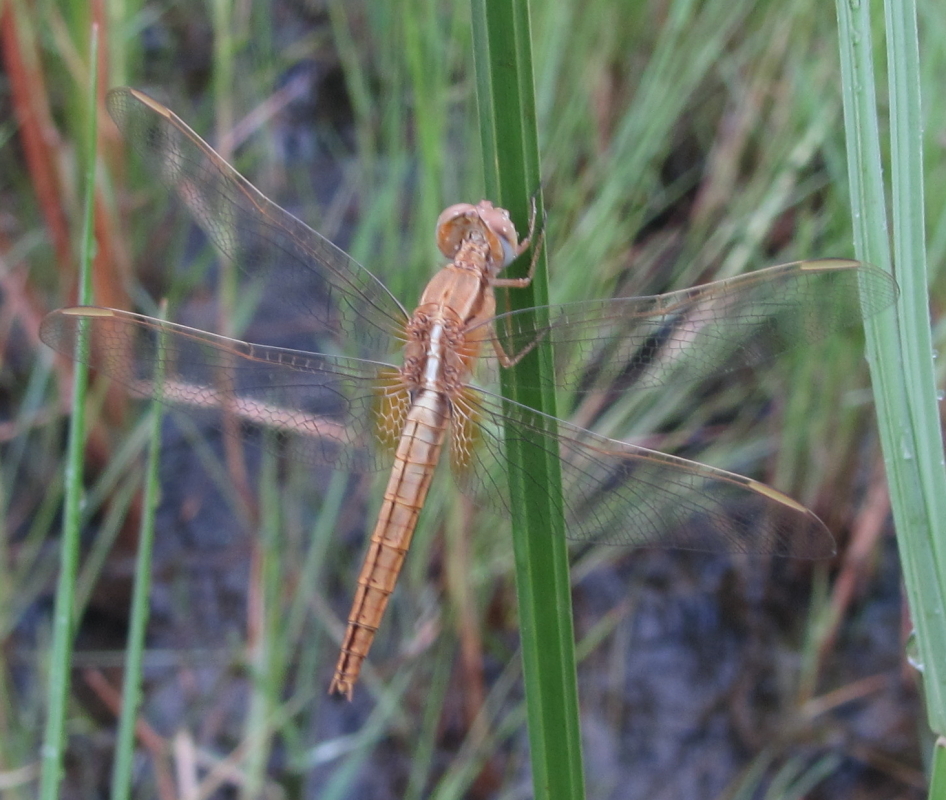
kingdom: Animalia
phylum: Arthropoda
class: Insecta
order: Odonata
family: Libellulidae
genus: Crocothemis
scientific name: Crocothemis erythraea
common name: Scarlet dragonfly
